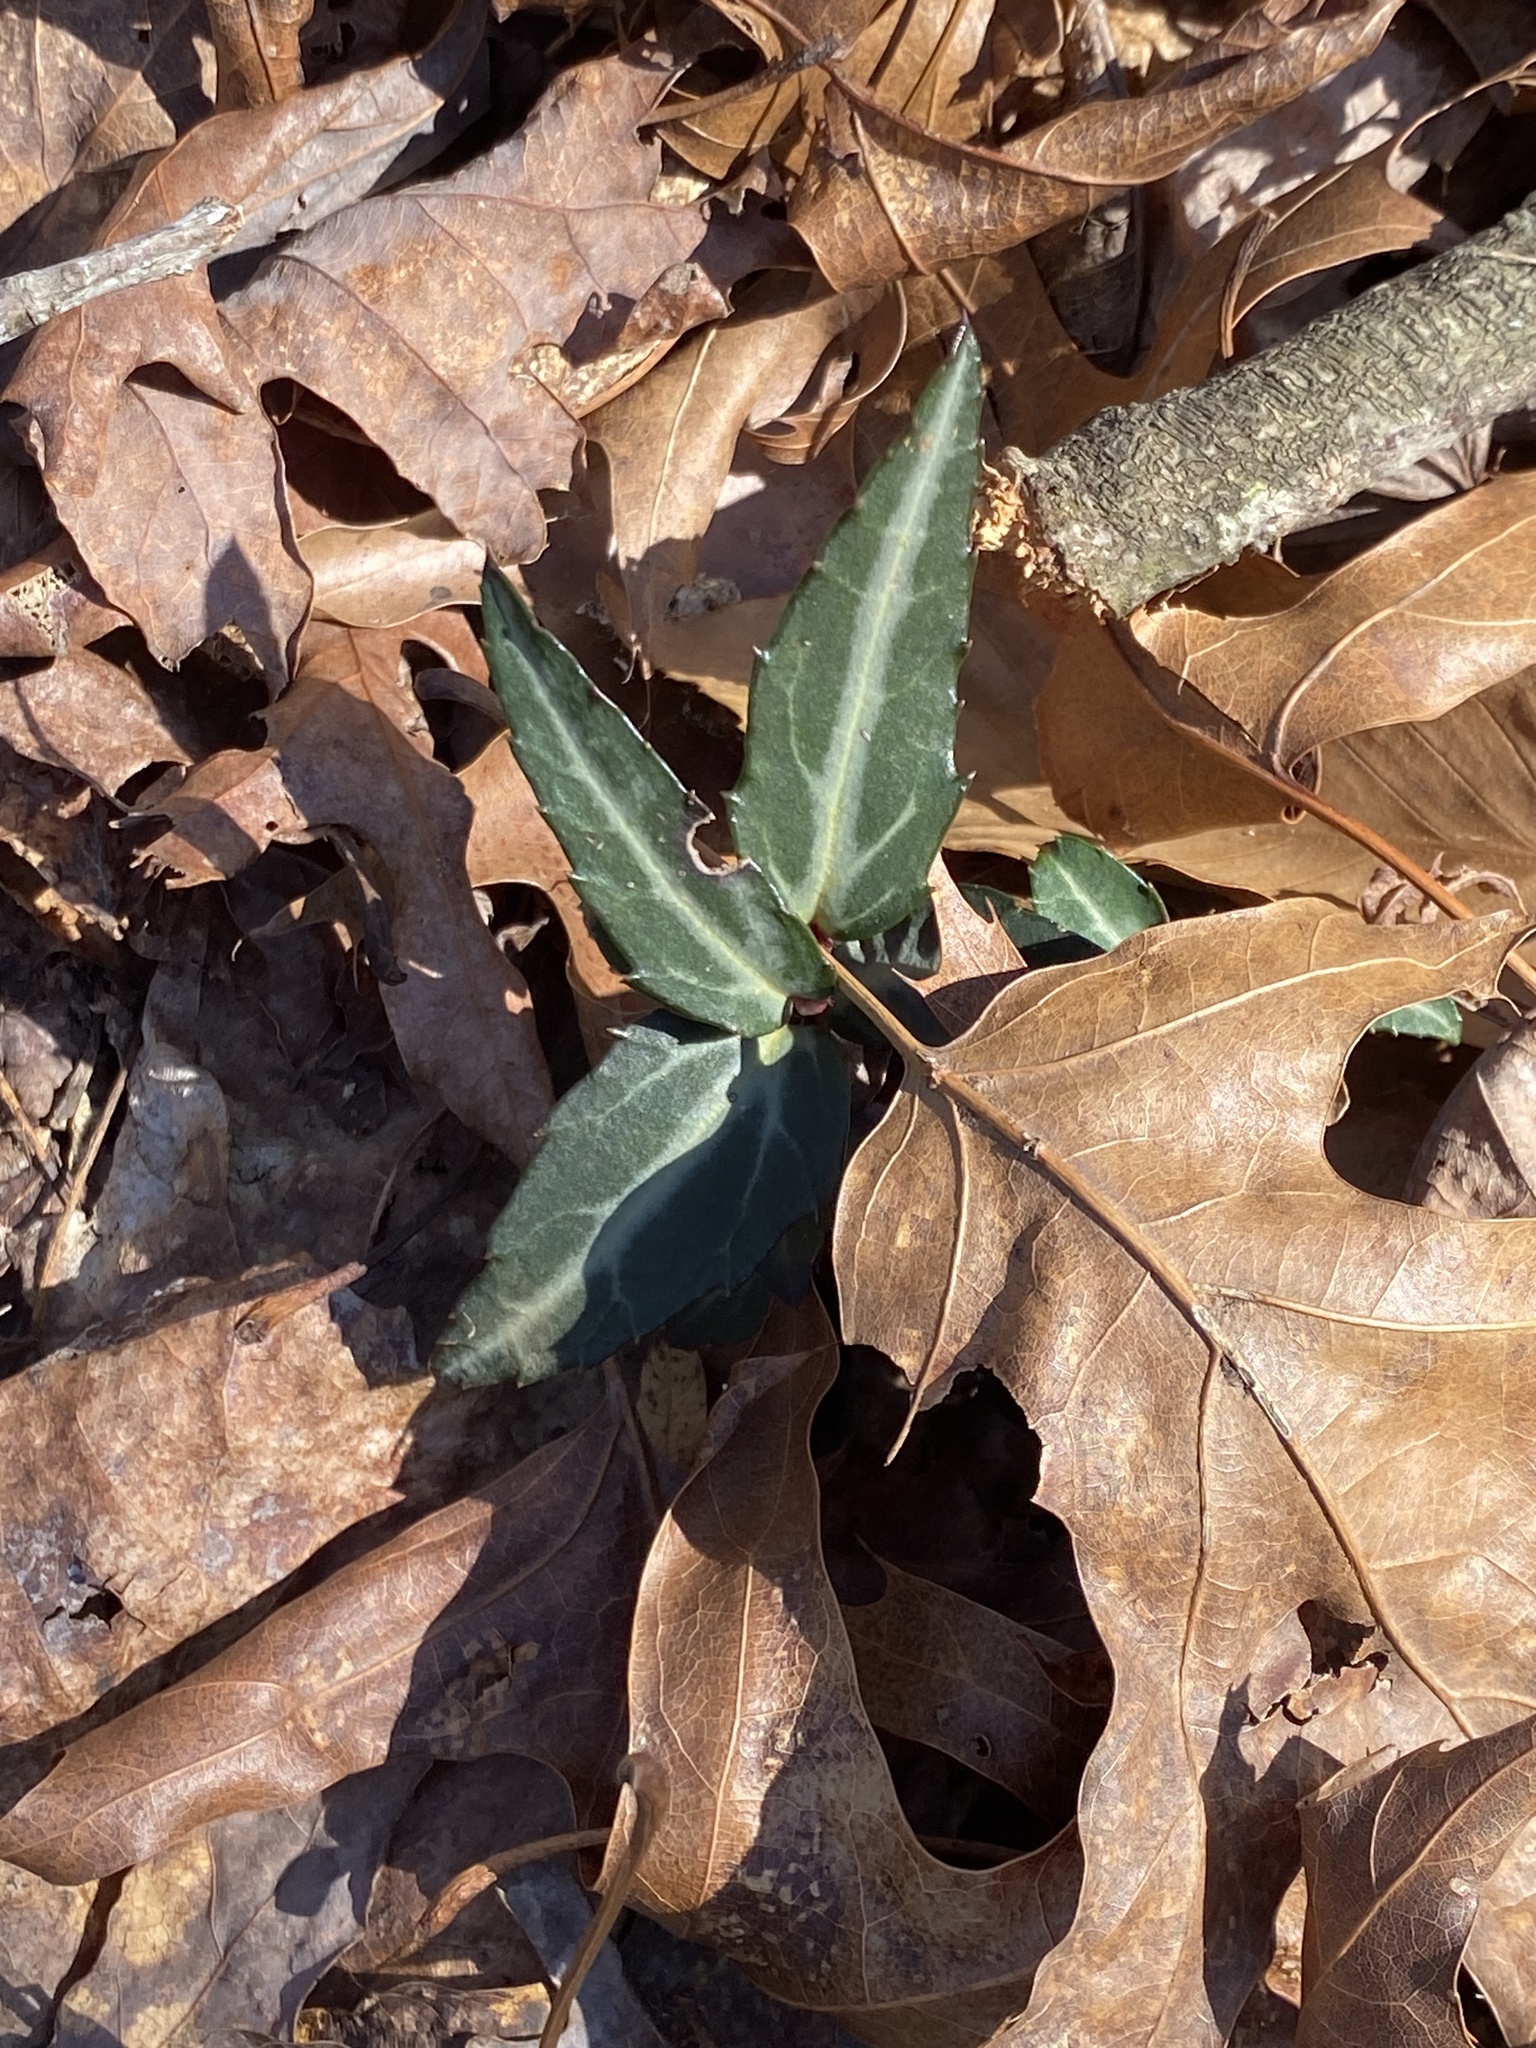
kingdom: Plantae
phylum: Tracheophyta
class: Magnoliopsida
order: Ericales
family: Ericaceae
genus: Chimaphila
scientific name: Chimaphila maculata
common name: Spotted pipsissewa
